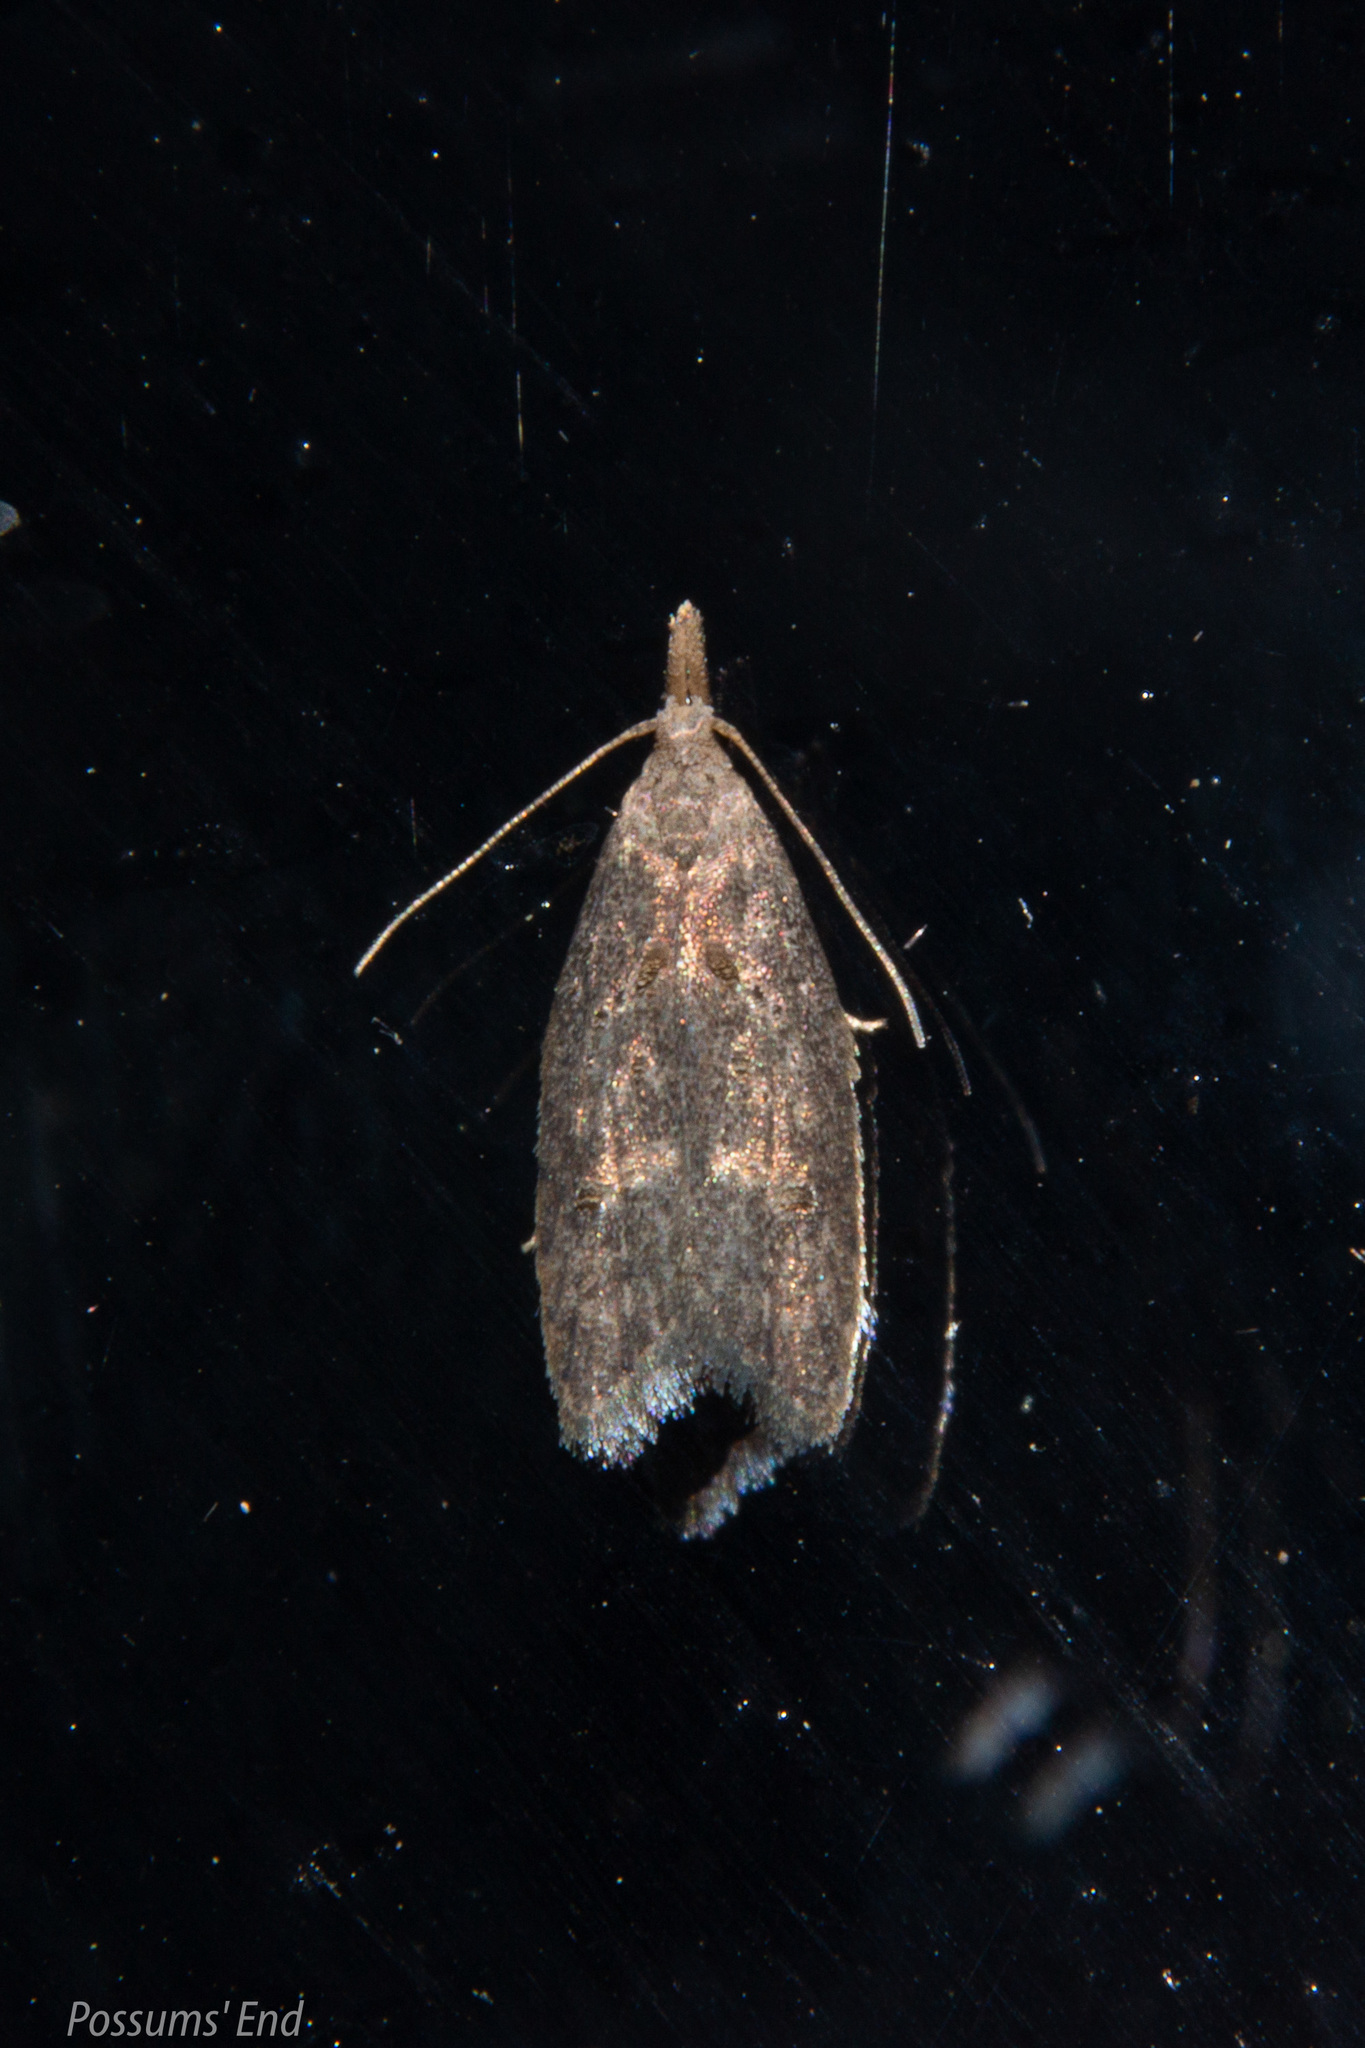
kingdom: Animalia
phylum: Arthropoda
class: Insecta
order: Lepidoptera
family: Carposinidae
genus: Carposina
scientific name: Carposina rubophaga
